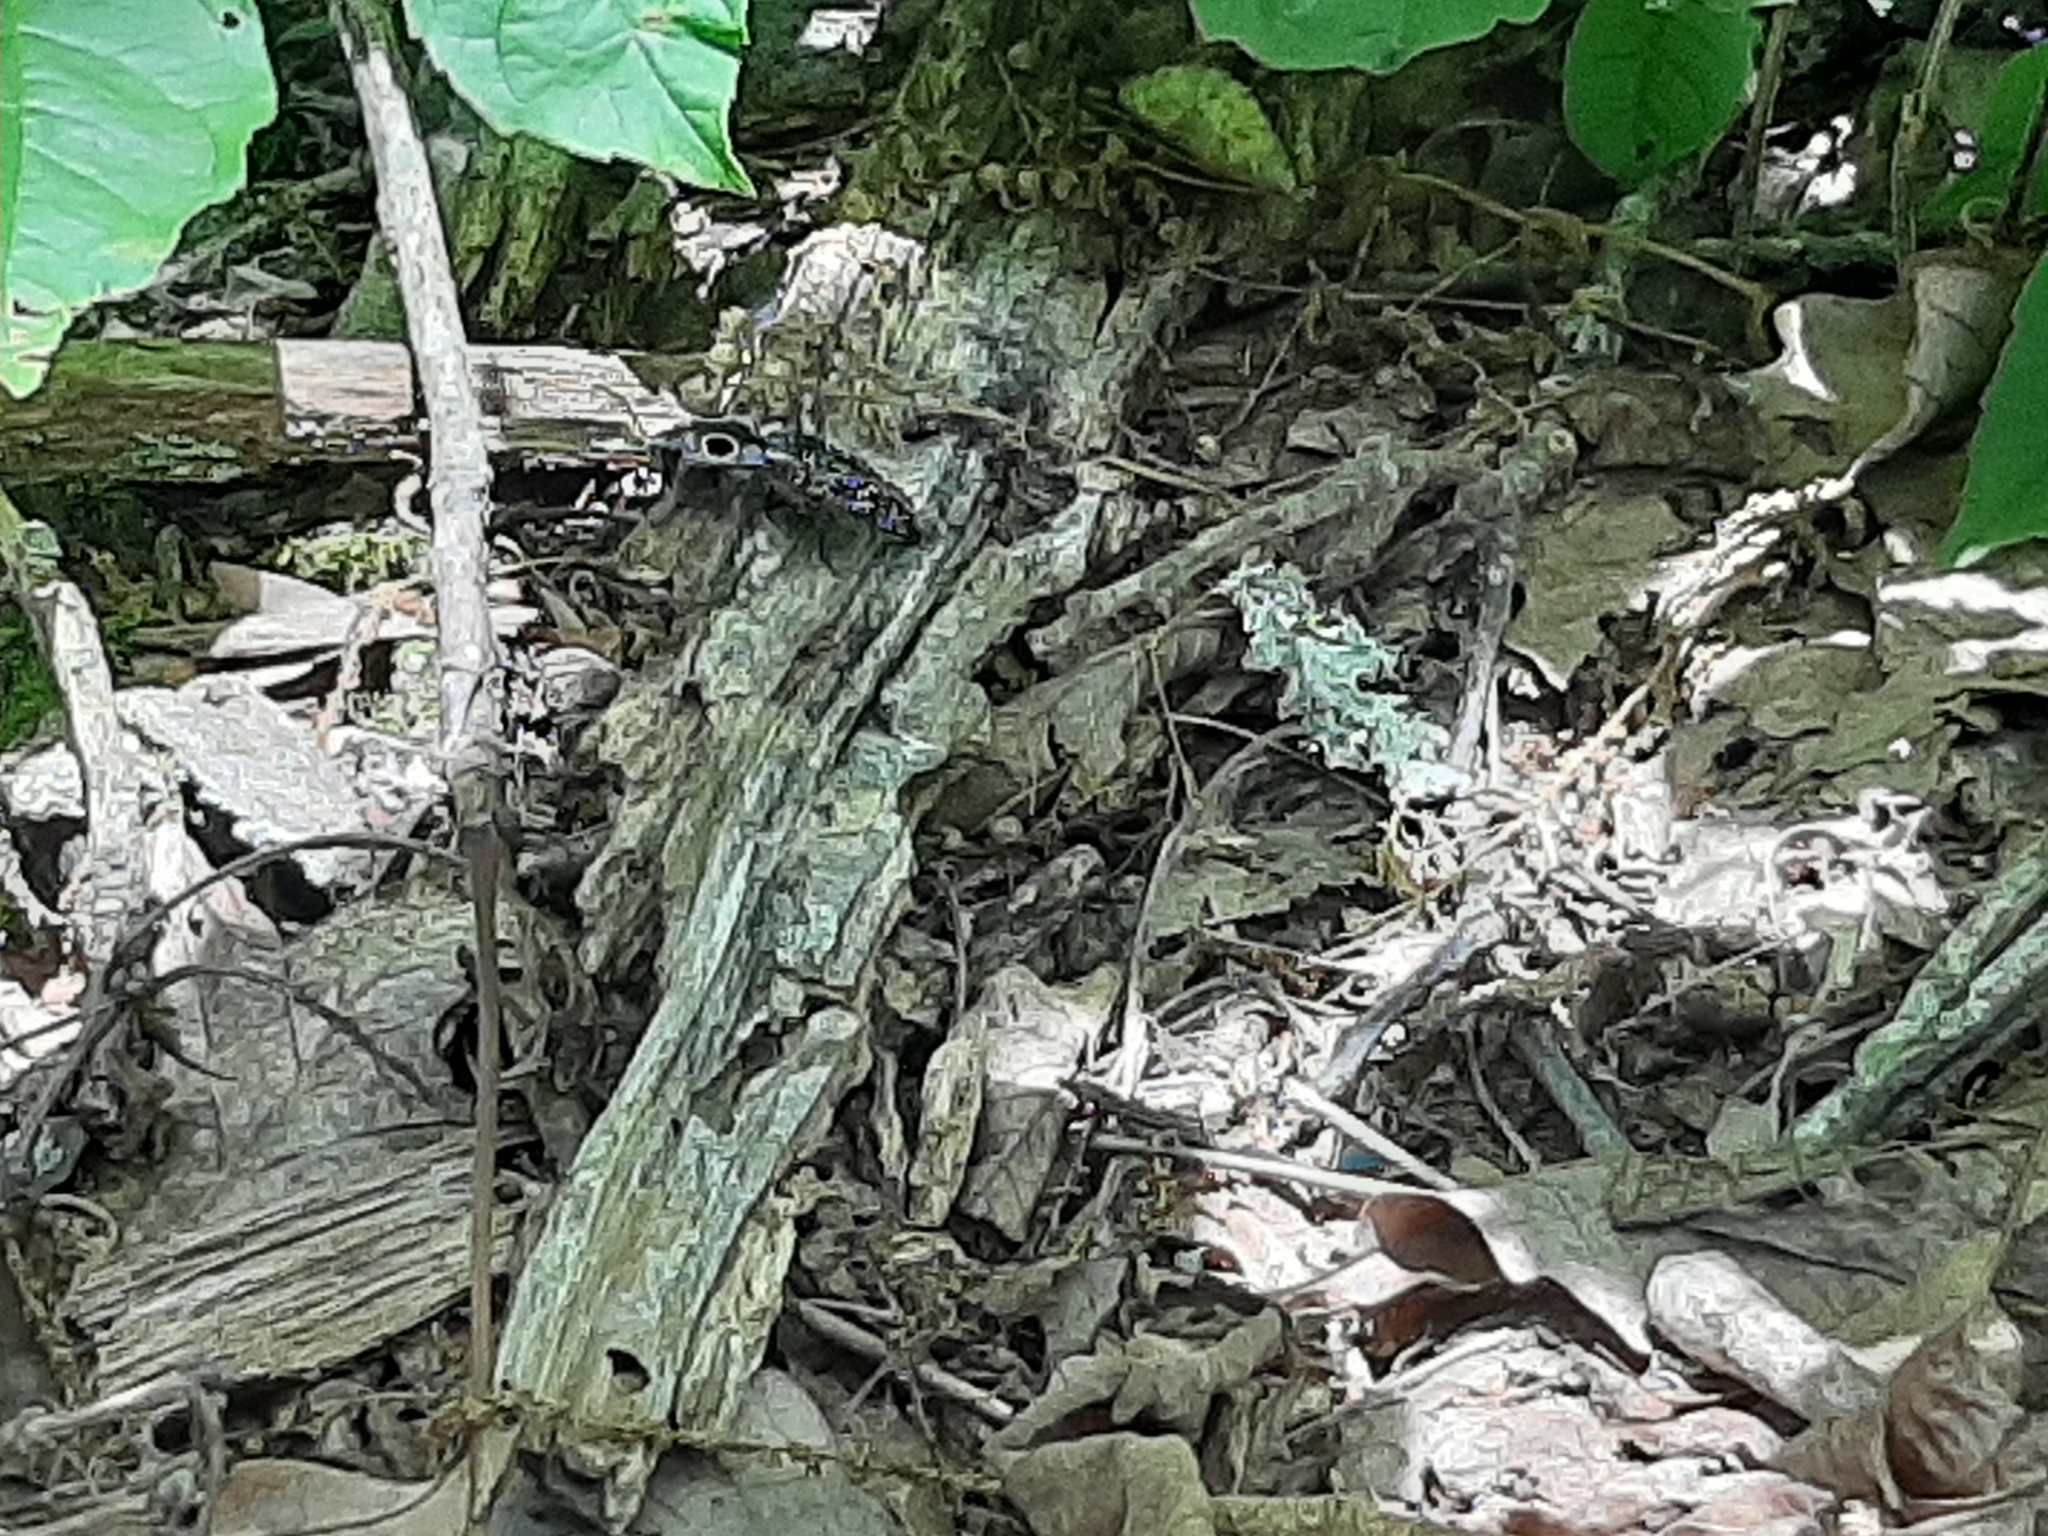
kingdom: Animalia
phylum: Arthropoda
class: Insecta
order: Coleoptera
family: Elateridae
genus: Alaus
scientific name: Alaus oculatus
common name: Eastern eyed click beetle
